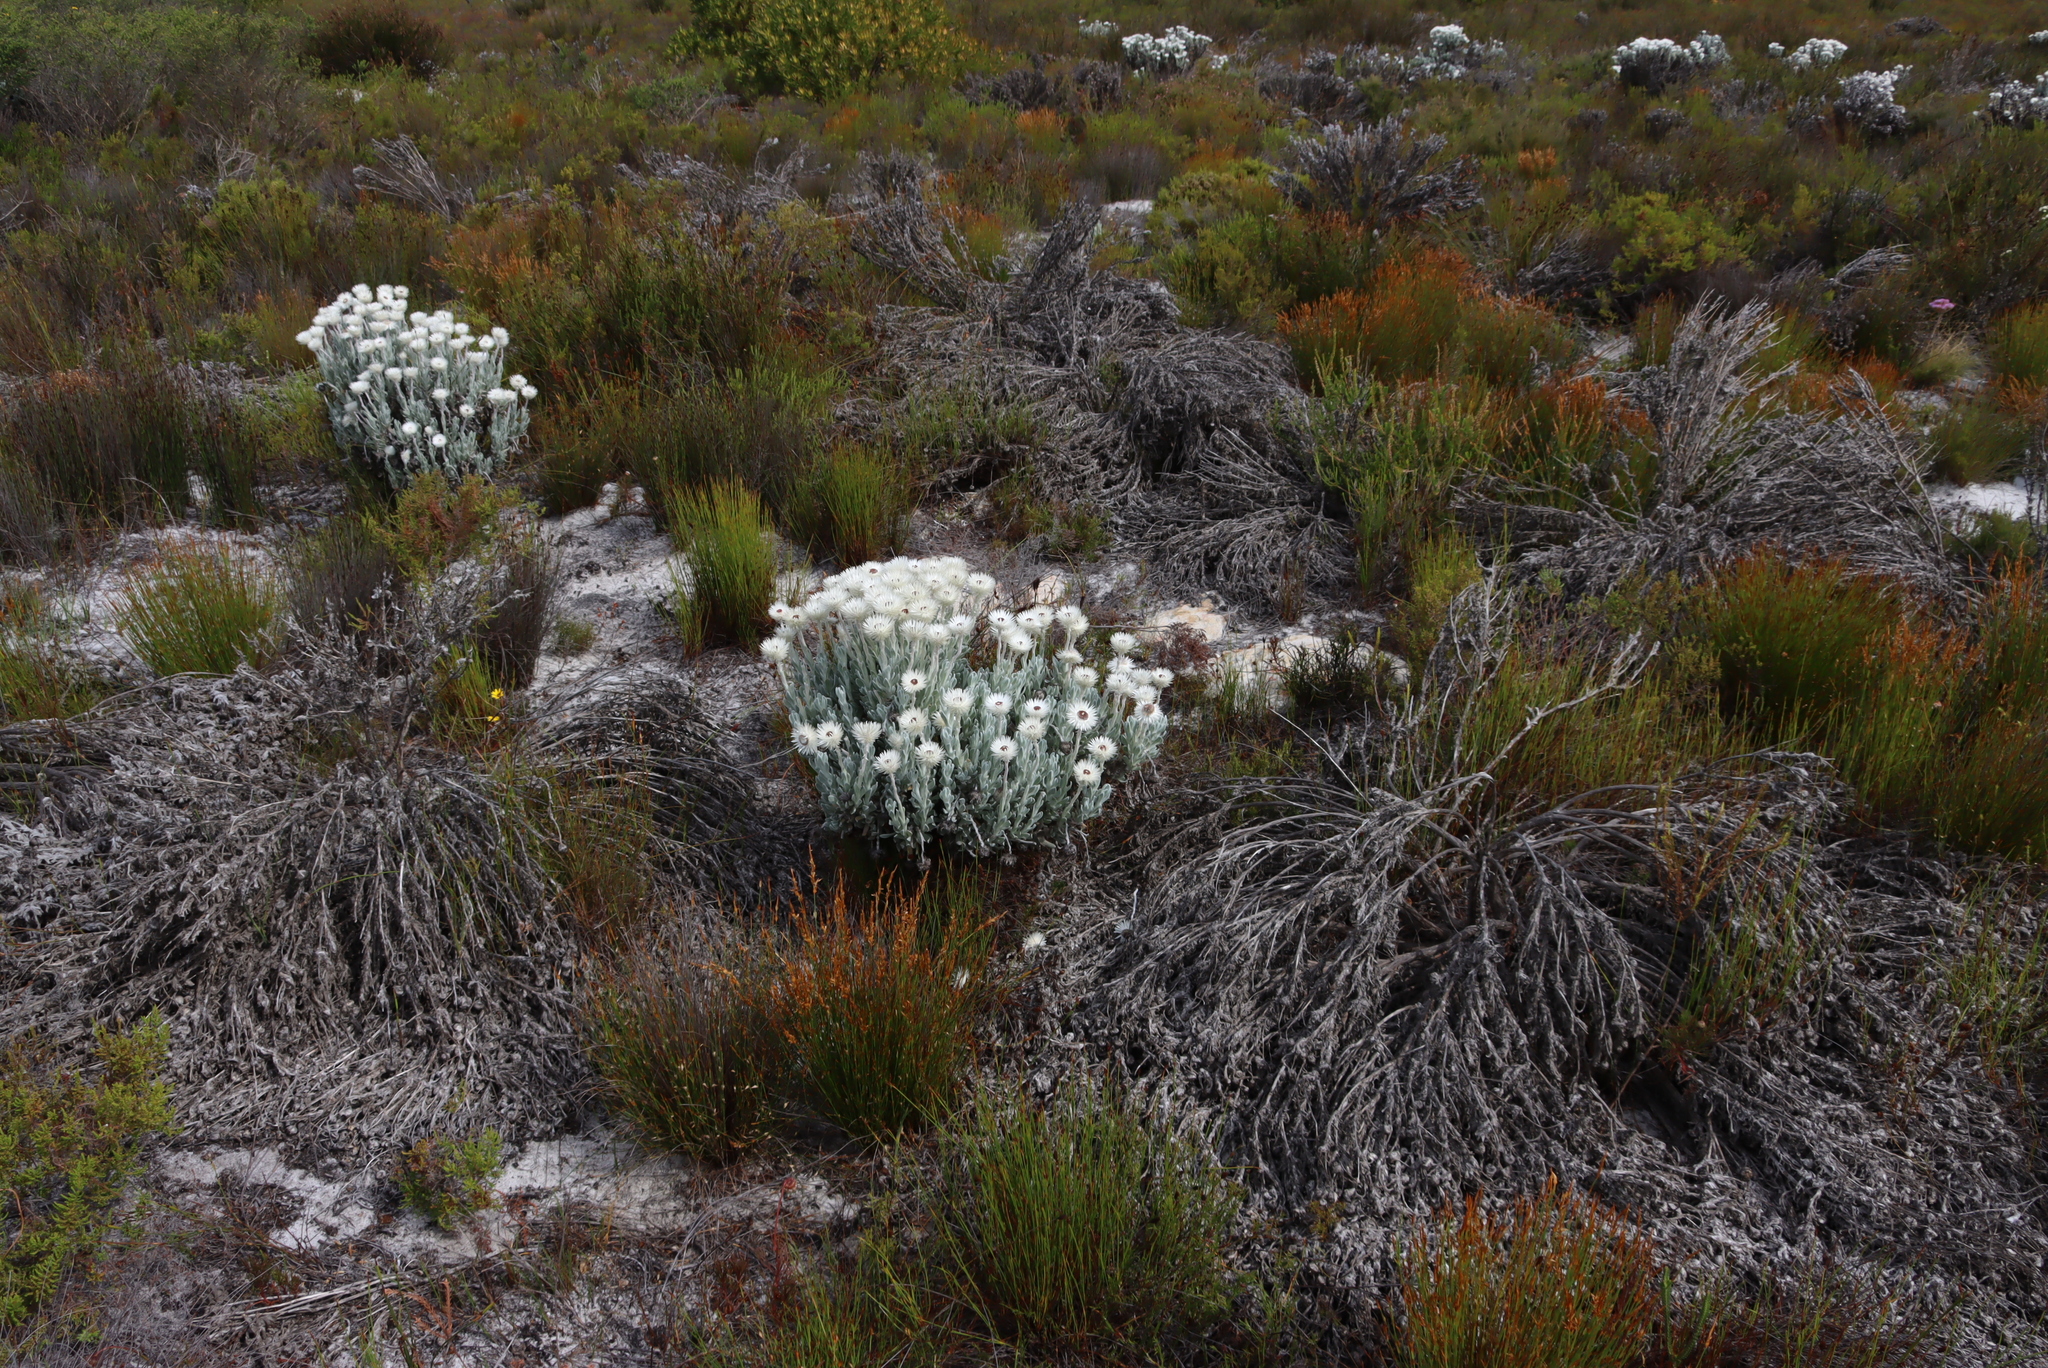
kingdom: Plantae
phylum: Tracheophyta
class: Magnoliopsida
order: Asterales
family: Asteraceae
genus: Syncarpha
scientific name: Syncarpha vestita
